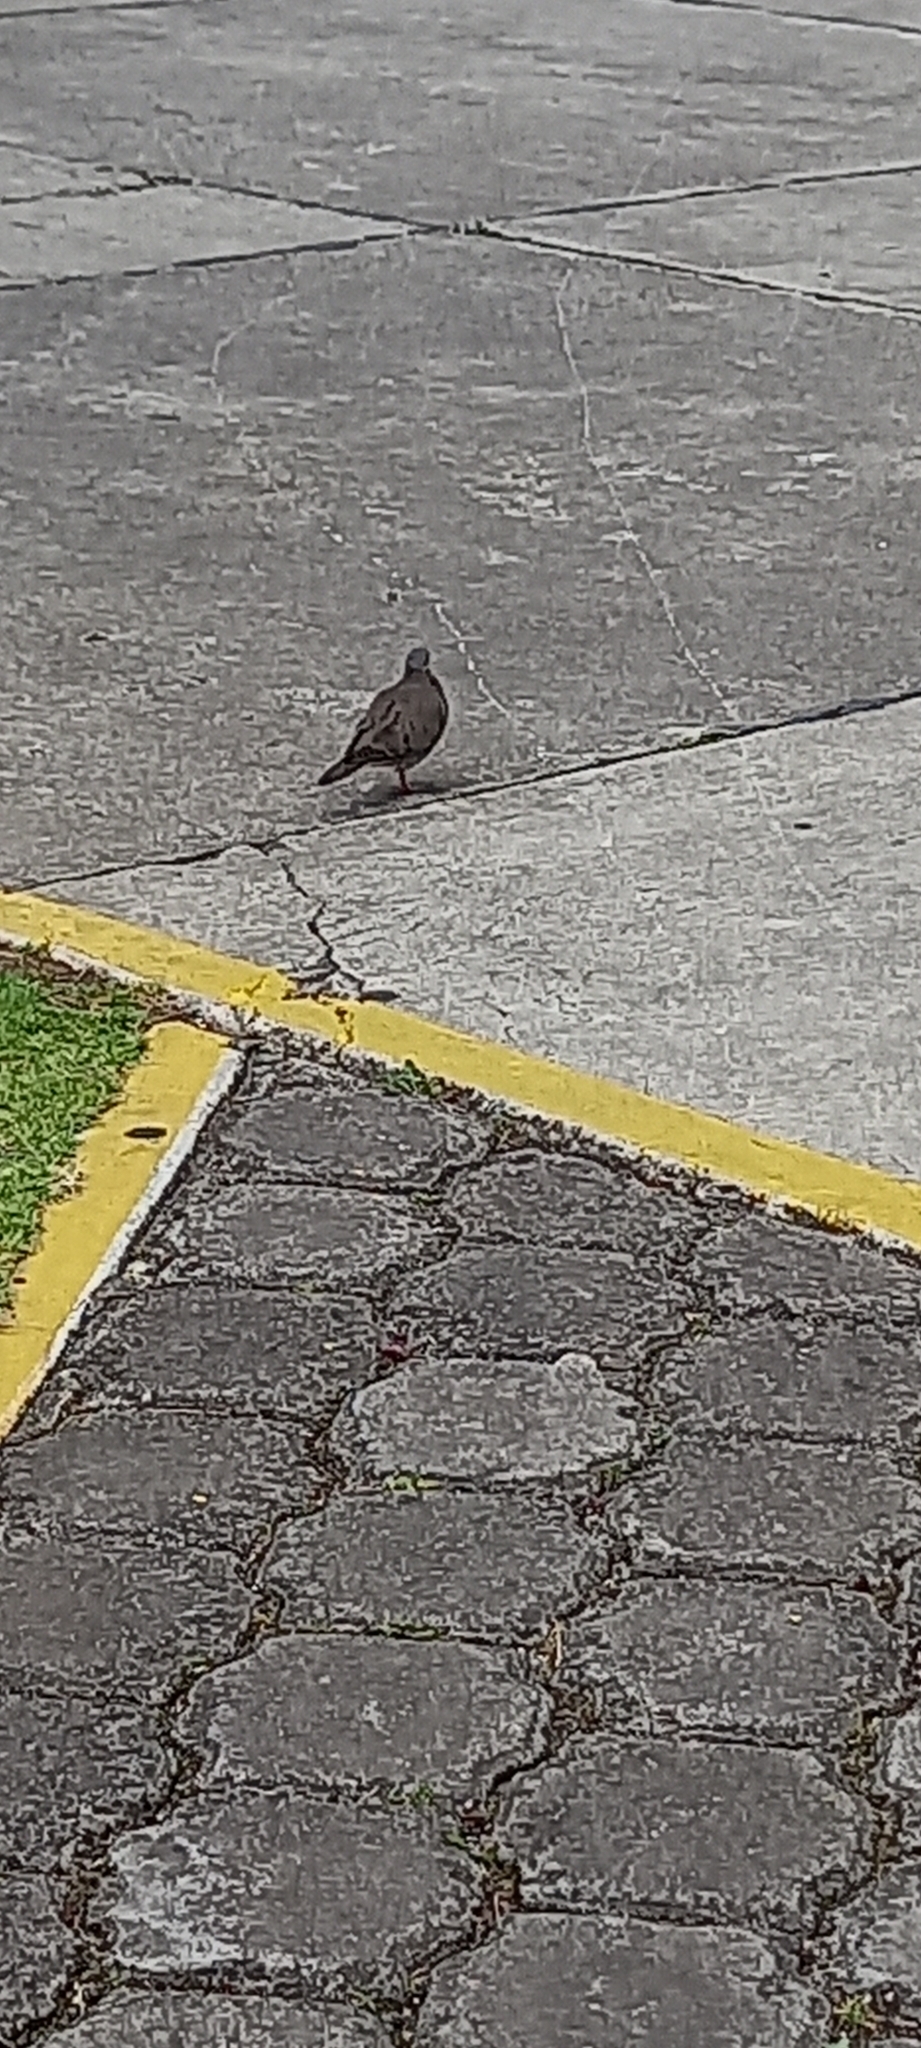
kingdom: Animalia
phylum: Chordata
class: Aves
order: Columbiformes
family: Columbidae
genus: Zenaida
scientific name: Zenaida auriculata
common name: Eared dove
